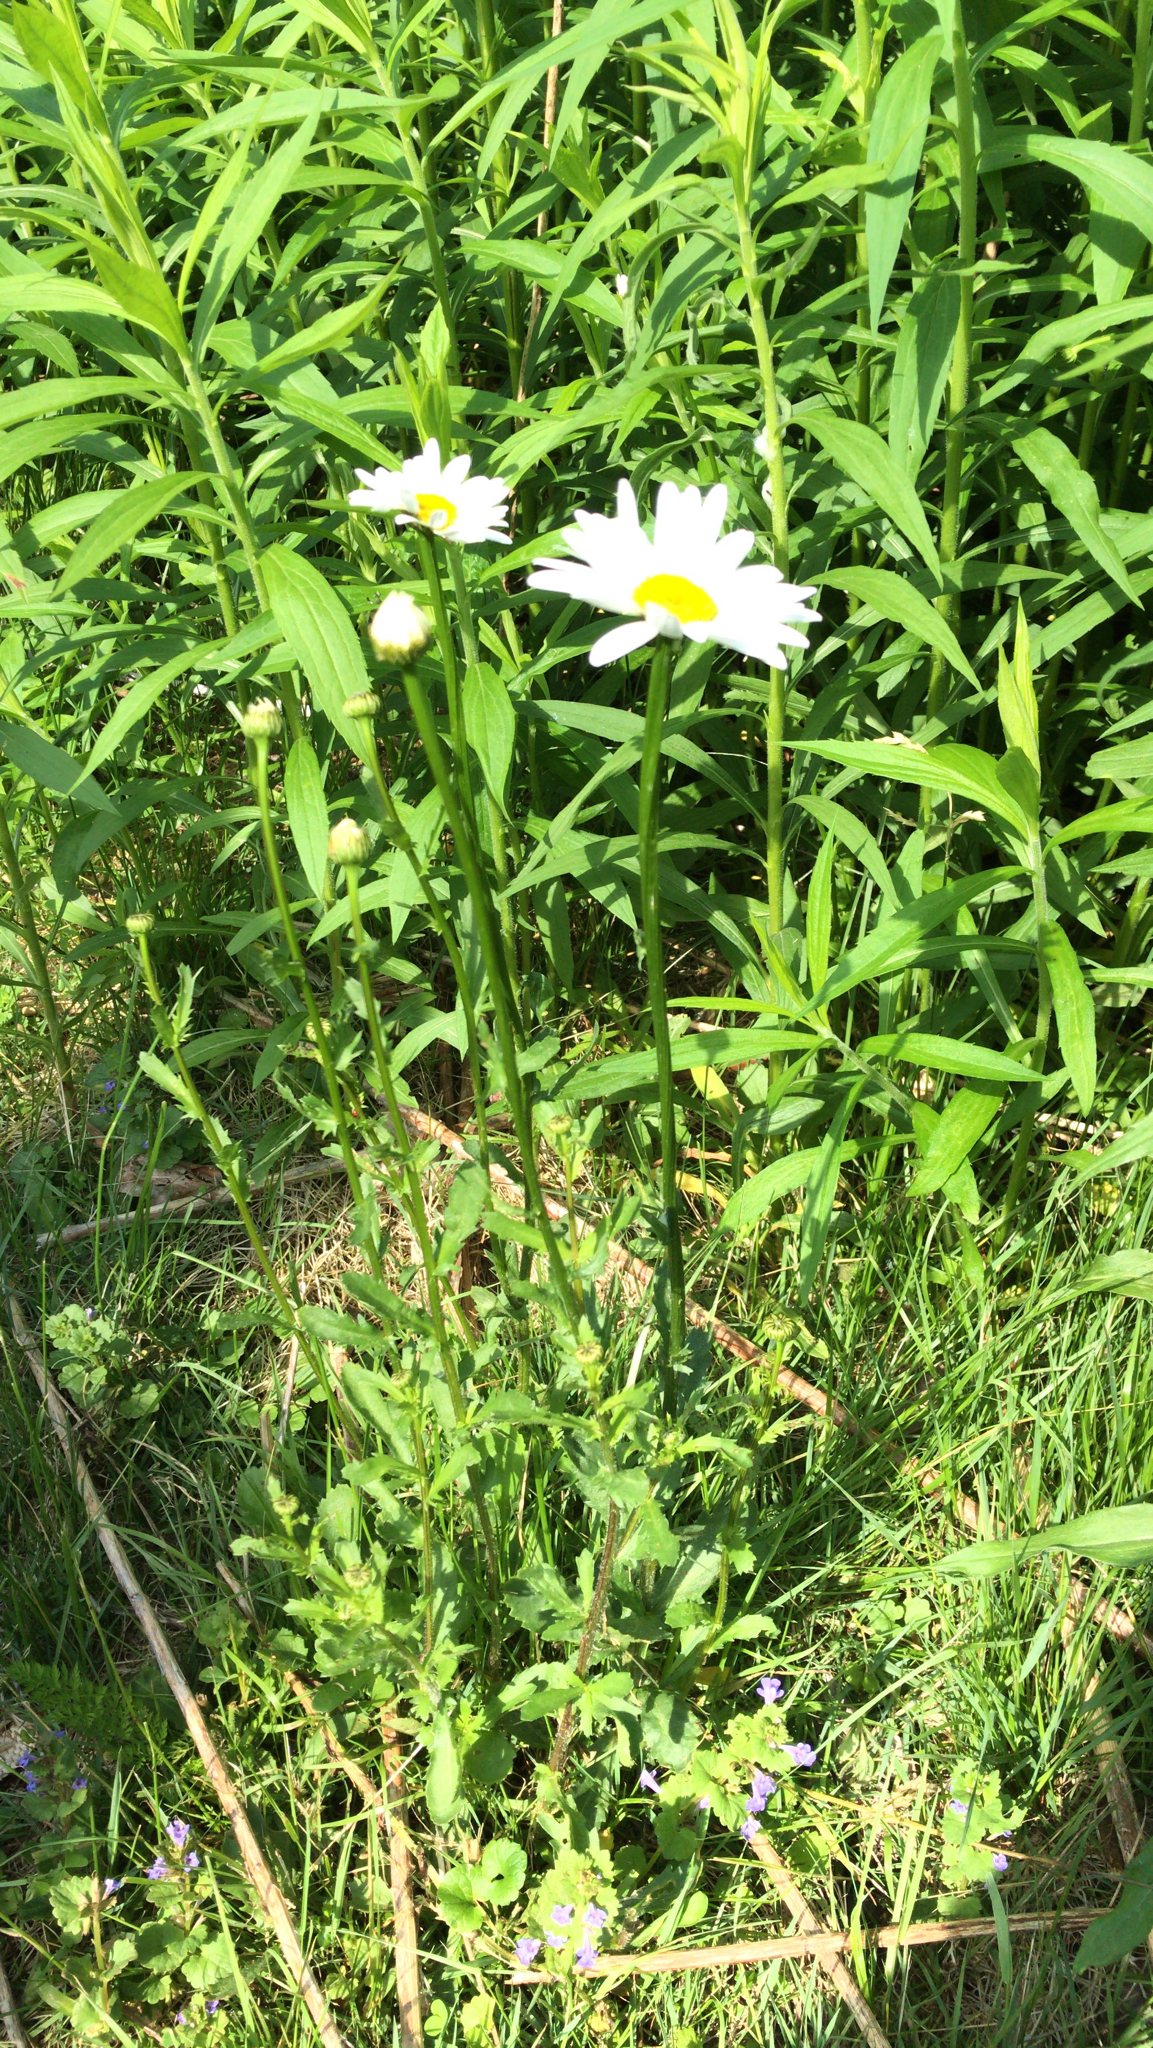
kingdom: Plantae
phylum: Tracheophyta
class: Magnoliopsida
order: Asterales
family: Asteraceae
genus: Leucanthemum
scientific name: Leucanthemum vulgare
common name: Oxeye daisy
